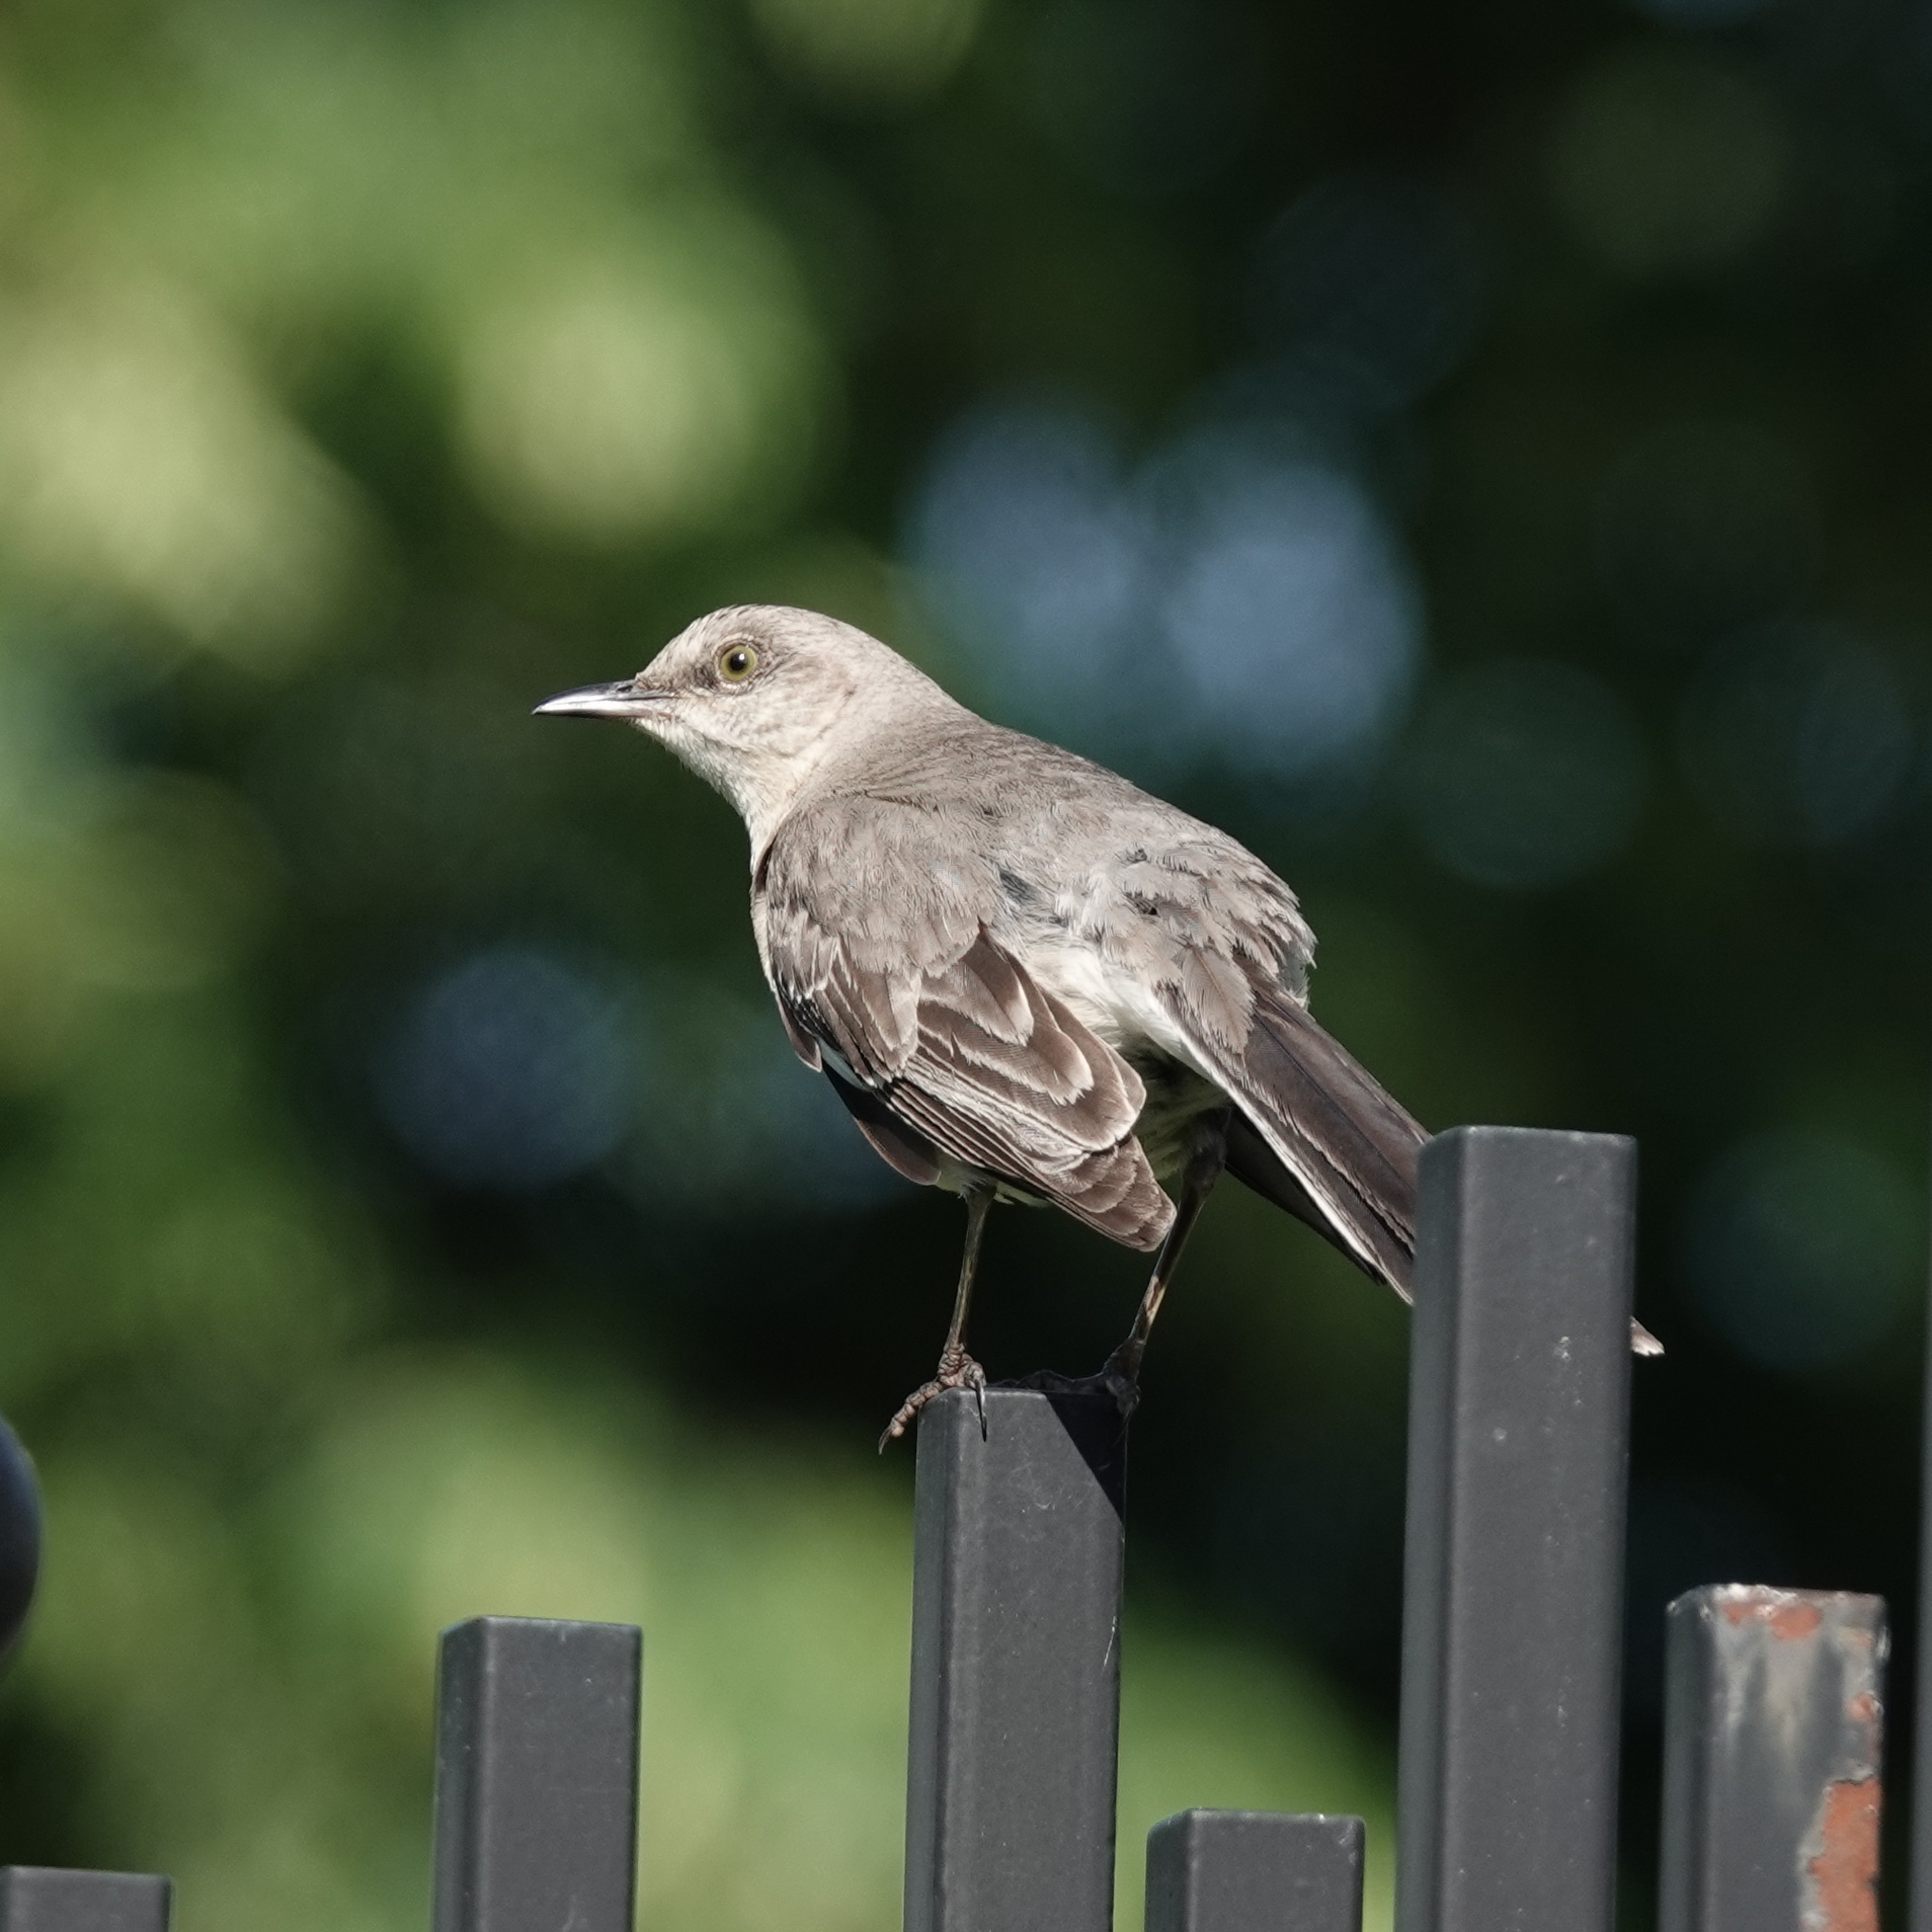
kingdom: Animalia
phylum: Chordata
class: Aves
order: Passeriformes
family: Mimidae
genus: Mimus
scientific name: Mimus polyglottos
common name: Northern mockingbird
